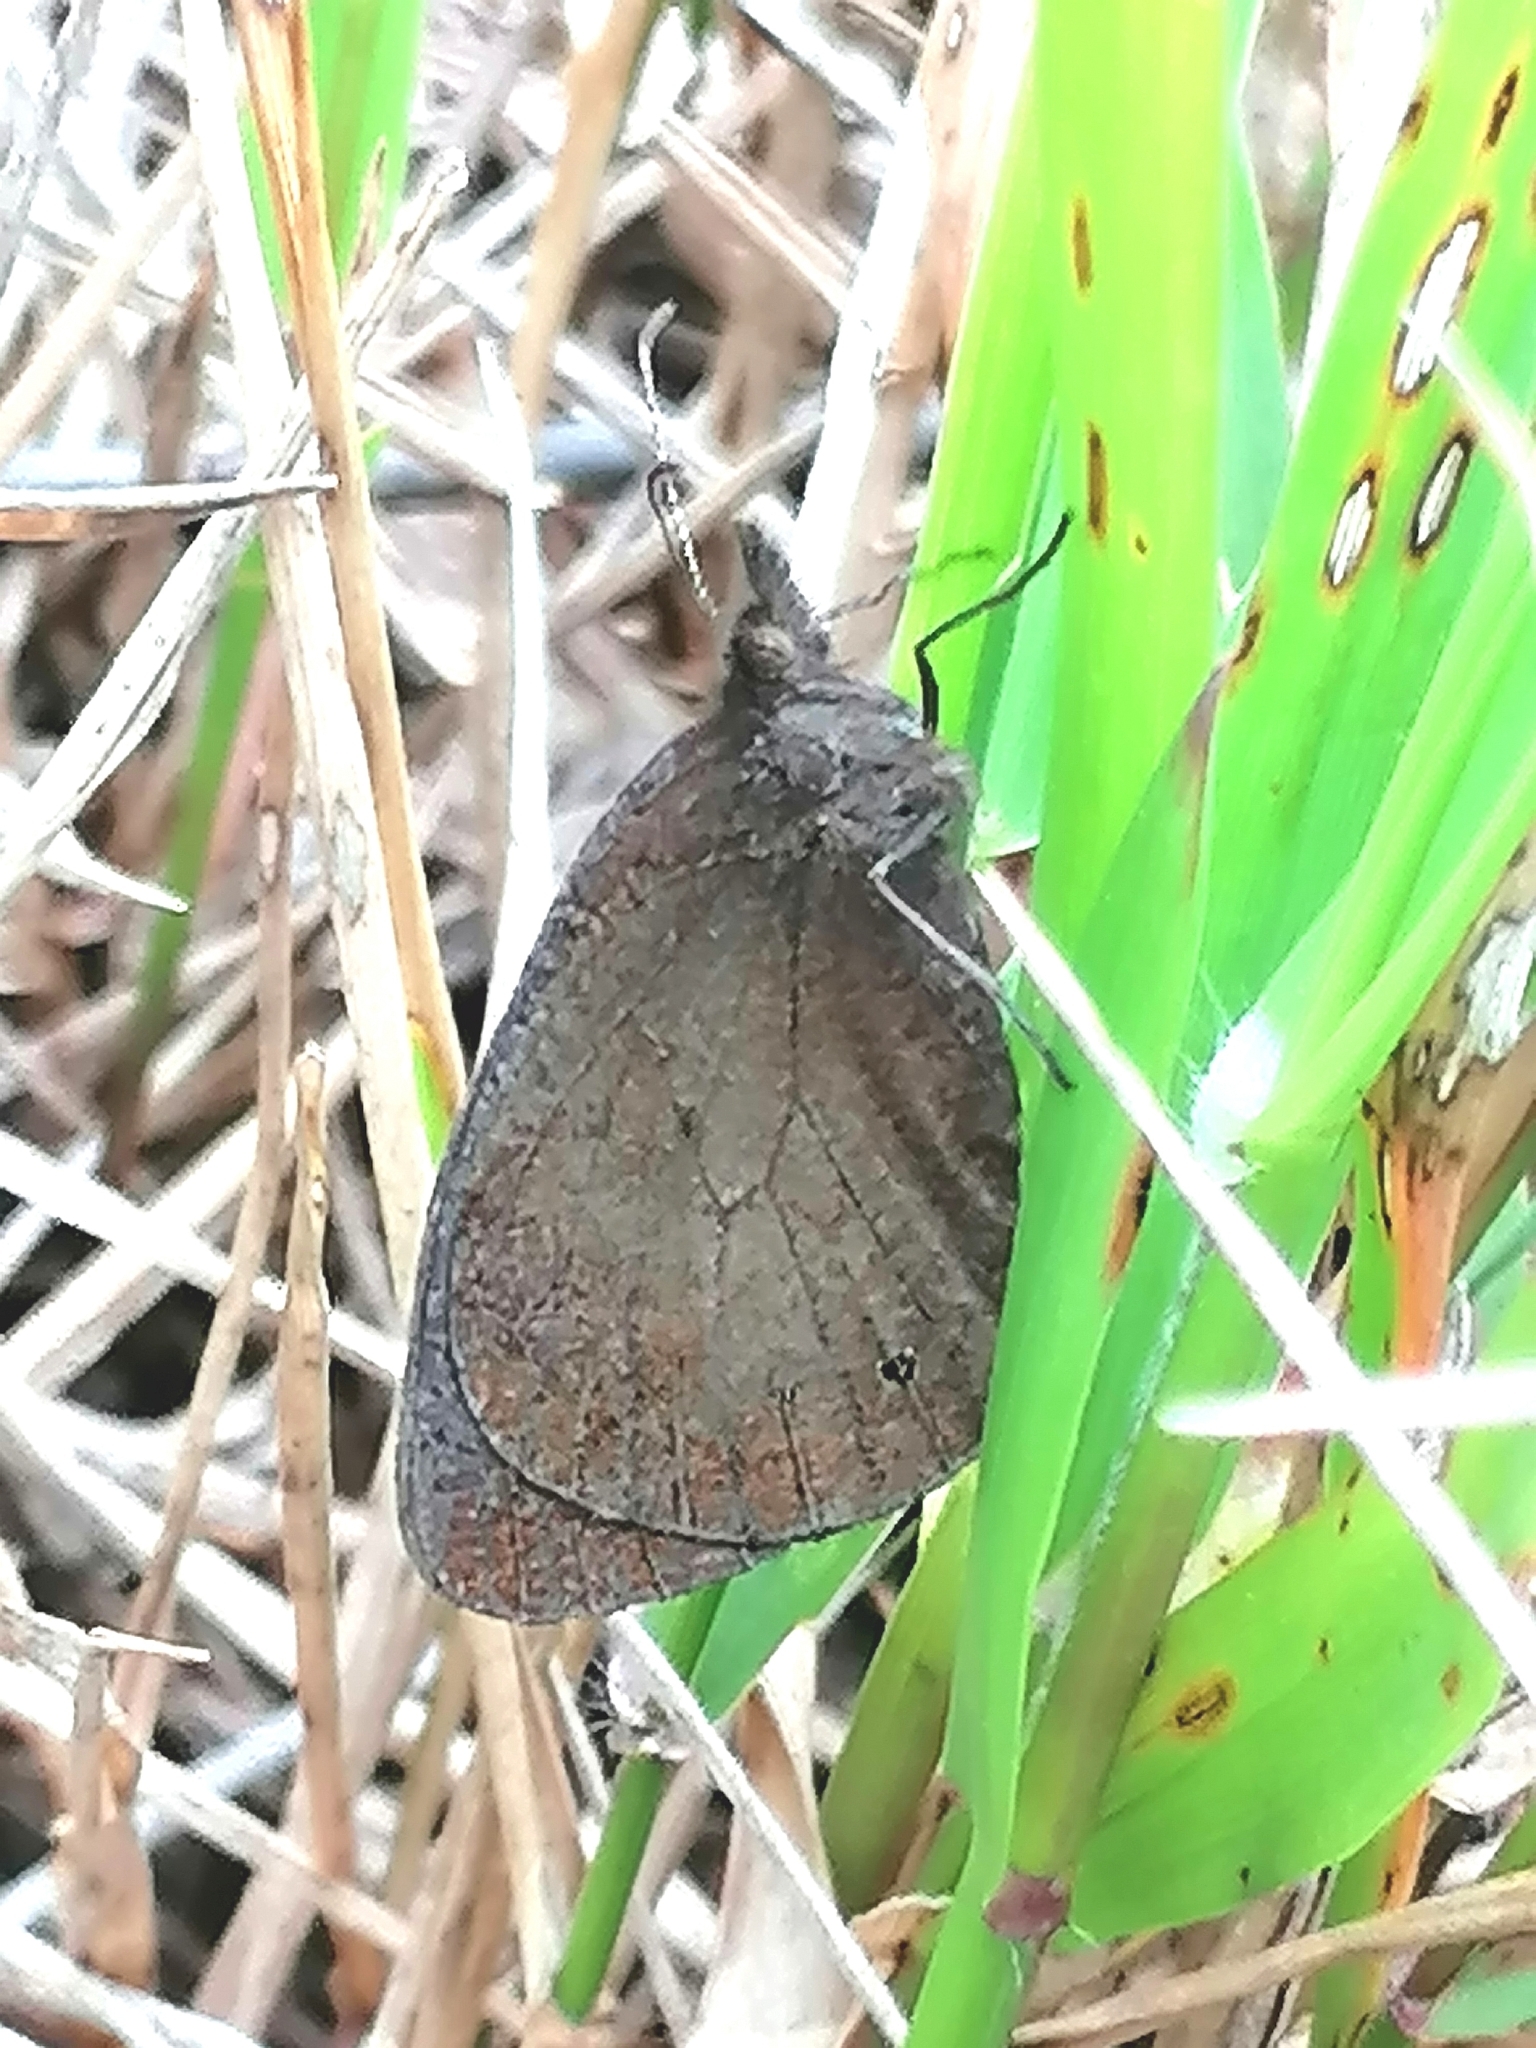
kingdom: Animalia
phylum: Arthropoda
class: Insecta
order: Lepidoptera
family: Nymphalidae
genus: Stygionympha
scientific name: Stygionympha vigilans
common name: Western hillside brown
